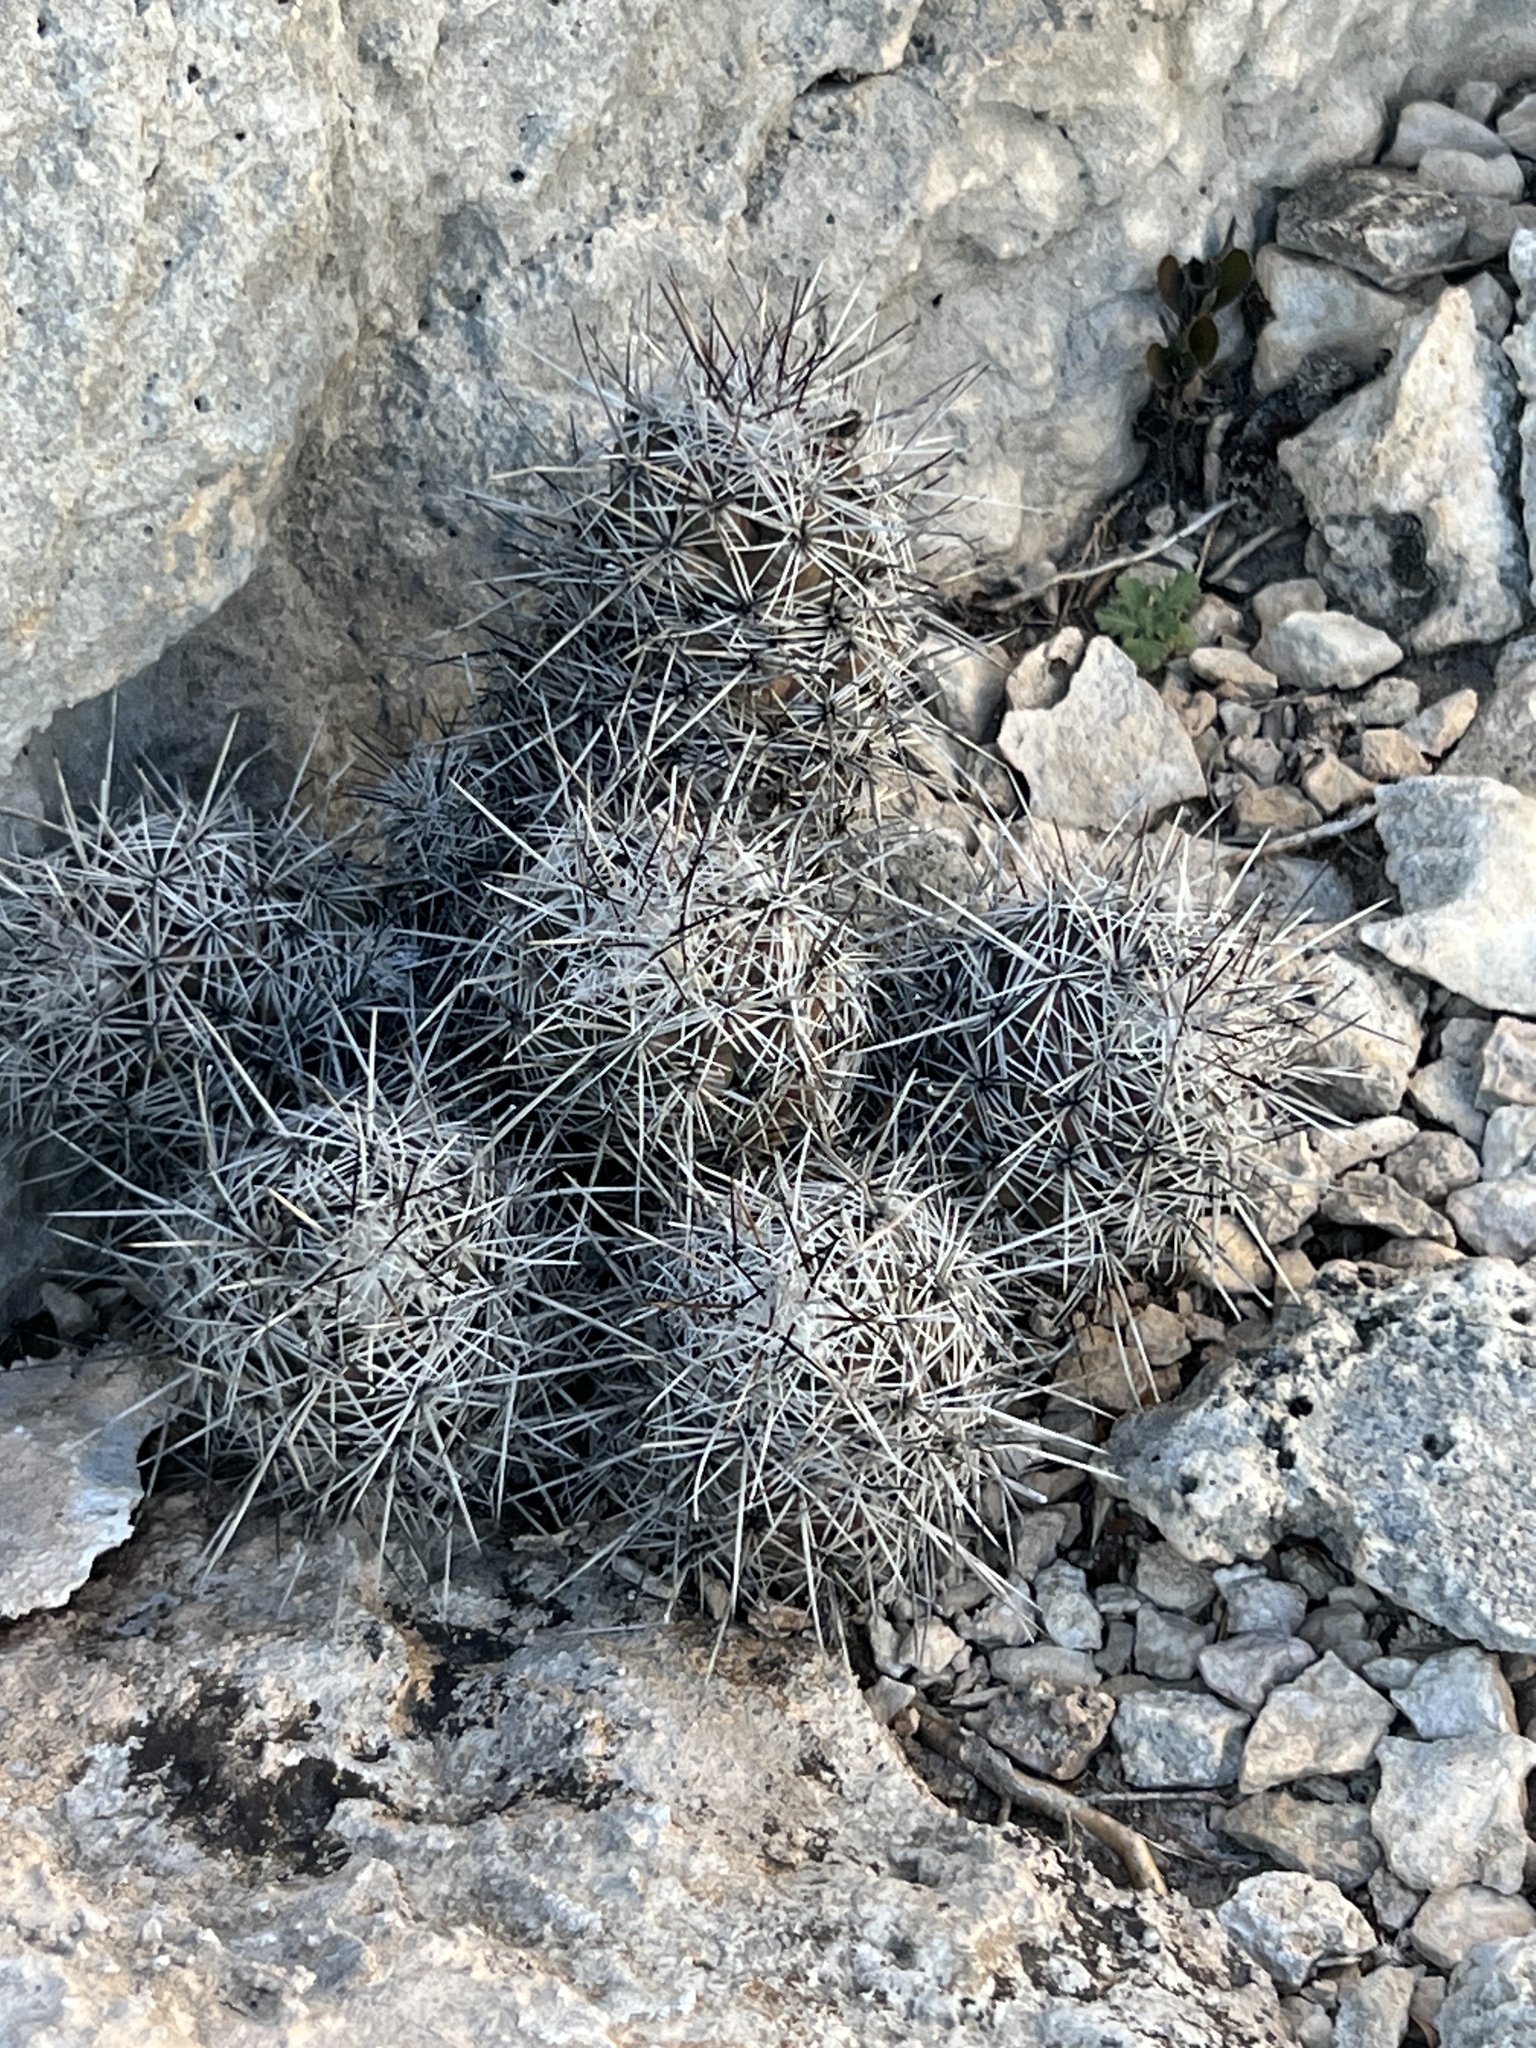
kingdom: Plantae
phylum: Tracheophyta
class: Magnoliopsida
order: Caryophyllales
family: Cactaceae
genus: Cochemiea
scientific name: Cochemiea conoidea
